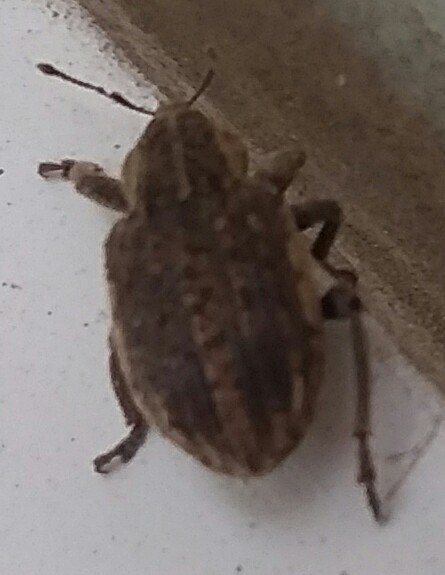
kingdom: Animalia
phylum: Arthropoda
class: Insecta
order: Coleoptera
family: Curculionidae
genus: Brachypera
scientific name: Brachypera zoilus
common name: Clover leaf weevil
